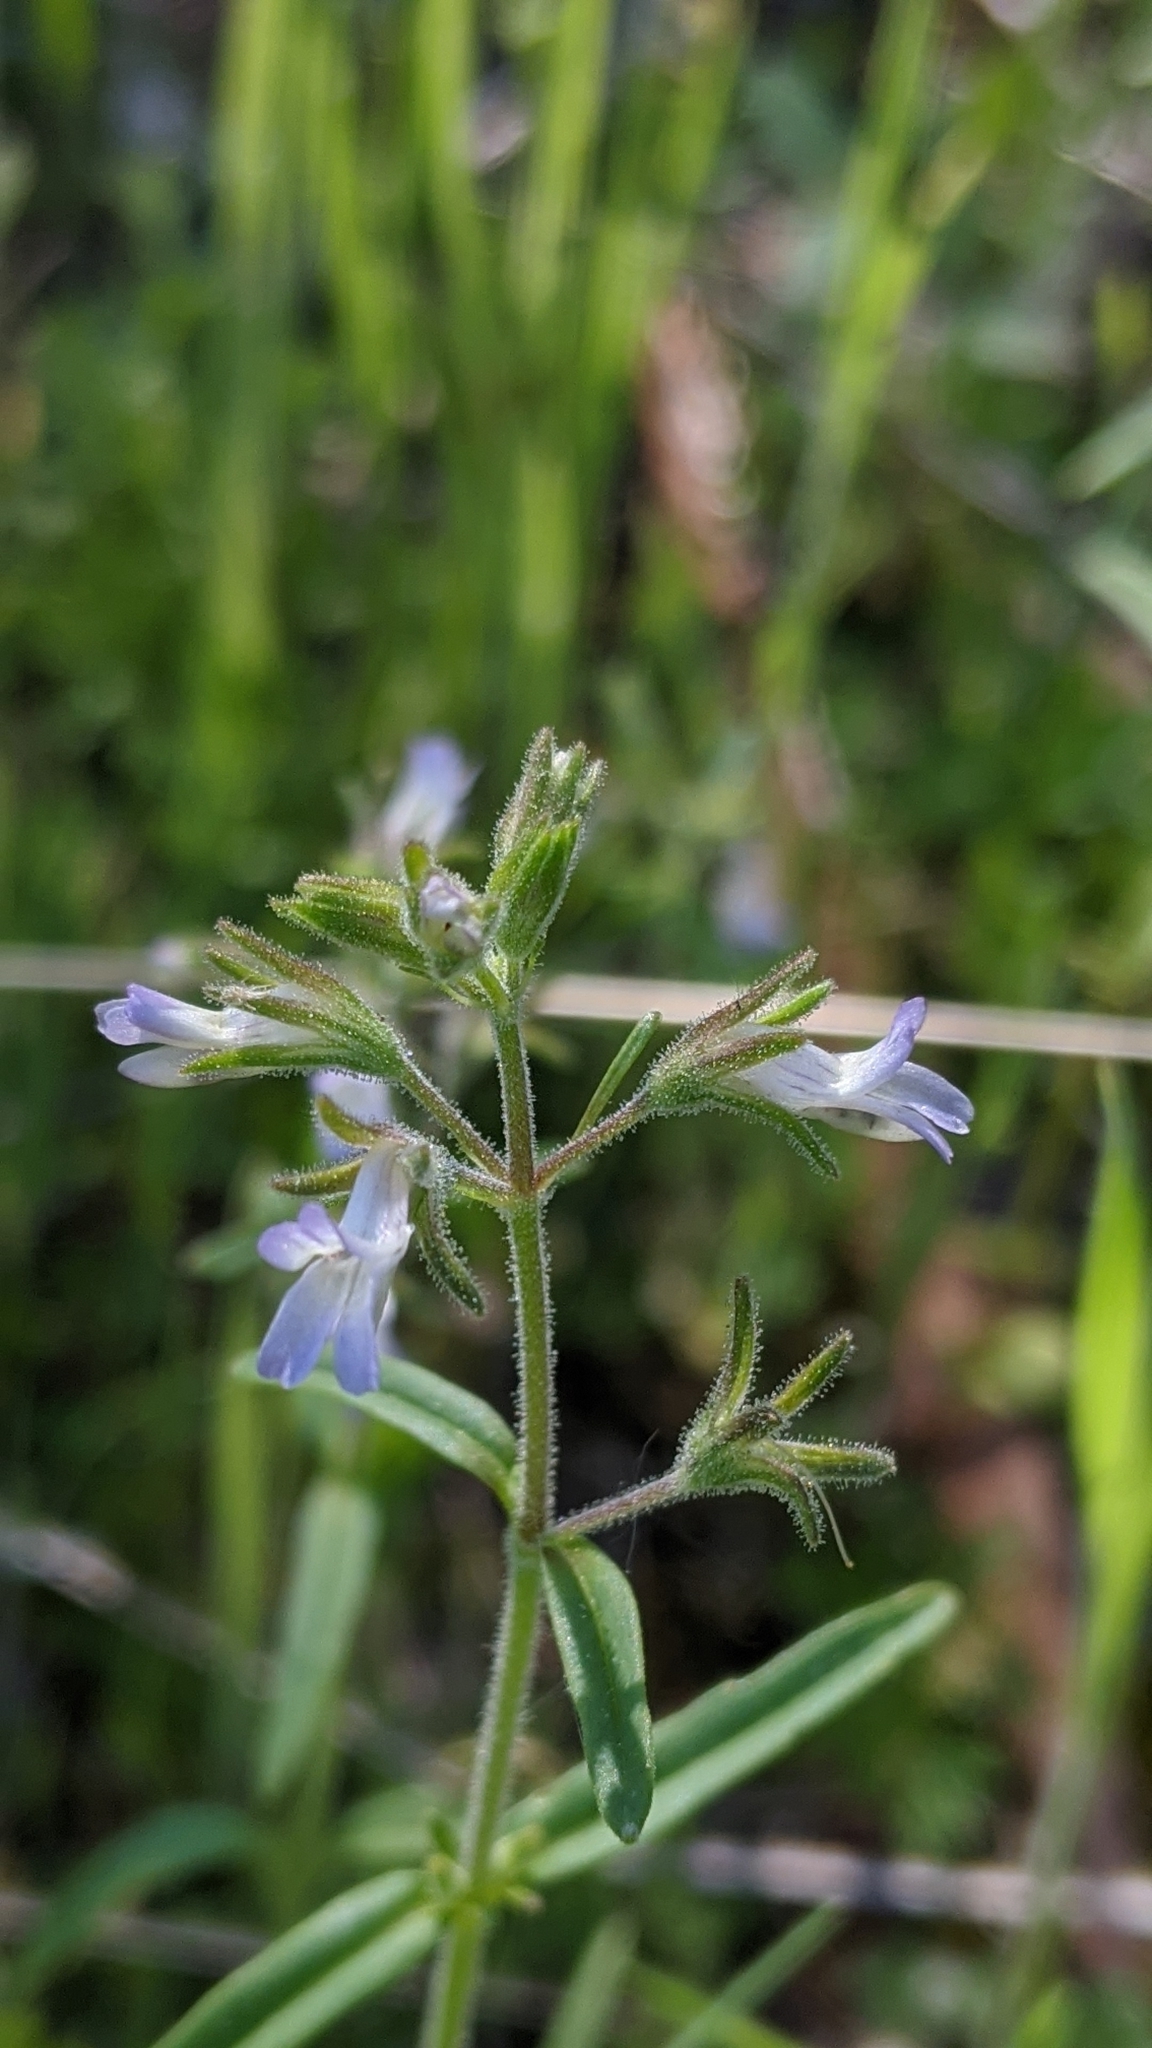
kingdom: Plantae
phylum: Tracheophyta
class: Magnoliopsida
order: Lamiales
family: Plantaginaceae
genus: Collinsia
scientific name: Collinsia childii
